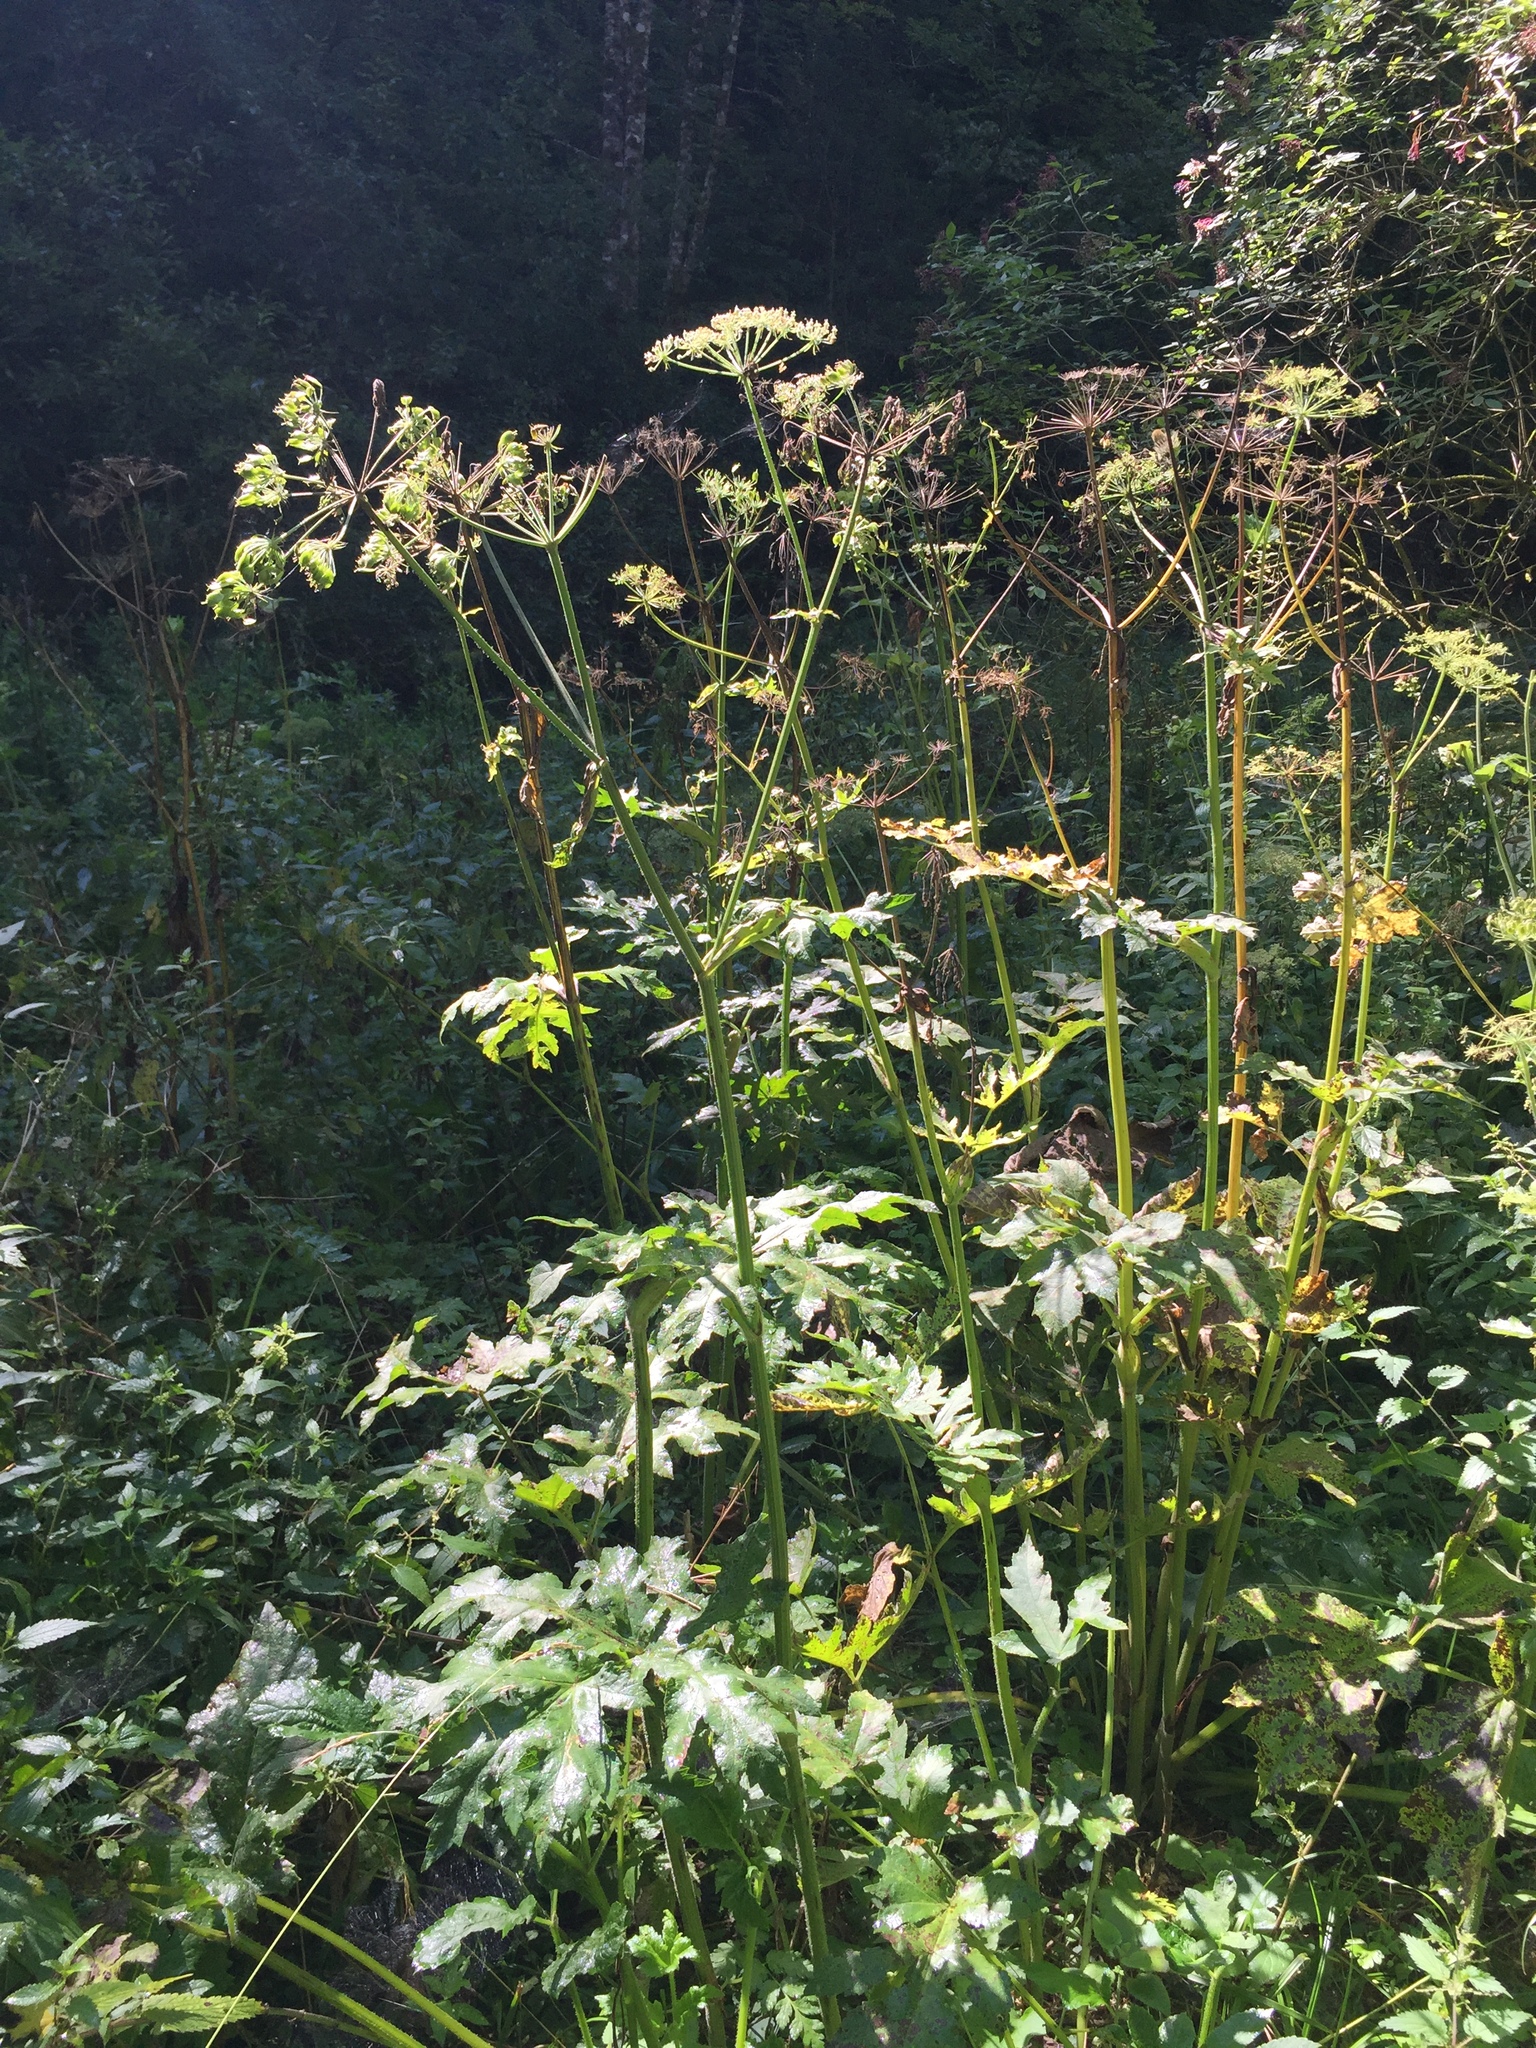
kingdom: Plantae
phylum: Tracheophyta
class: Magnoliopsida
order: Apiales
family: Apiaceae
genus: Heracleum
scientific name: Heracleum sphondylium
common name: Hogweed
